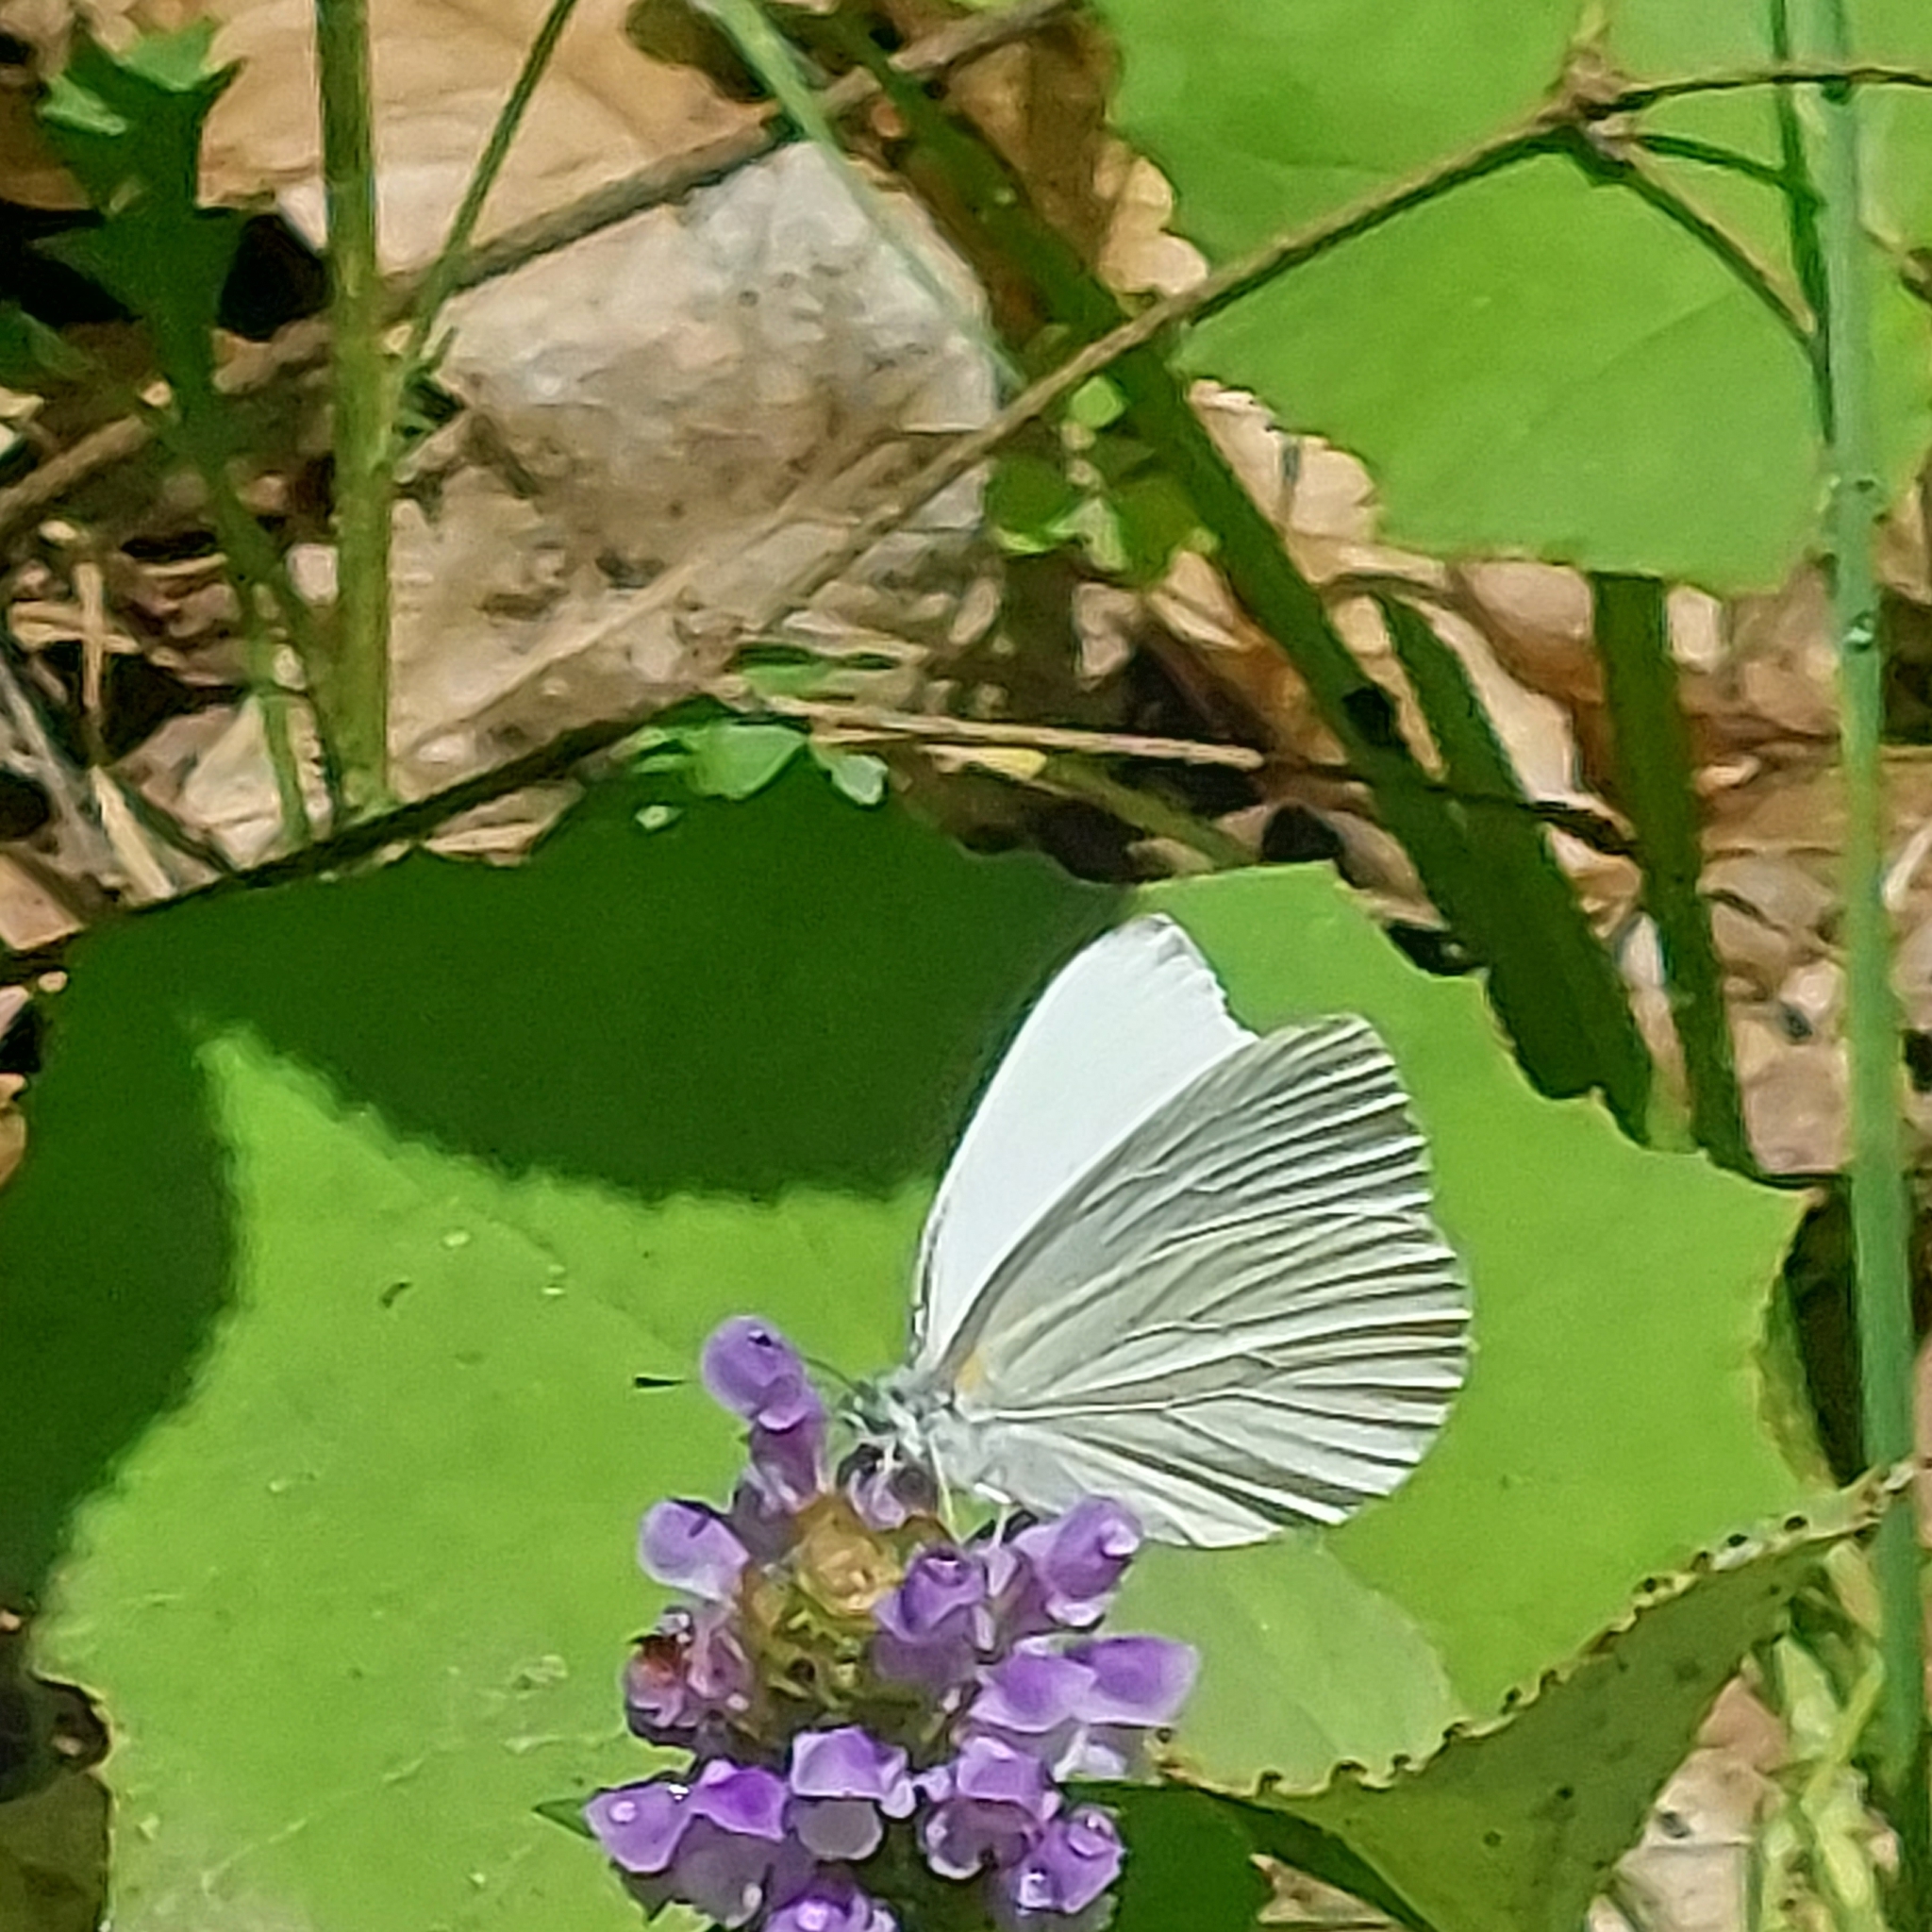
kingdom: Animalia
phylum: Arthropoda
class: Insecta
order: Lepidoptera
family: Pieridae
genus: Pieris
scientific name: Pieris oleracea
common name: Mustard white
